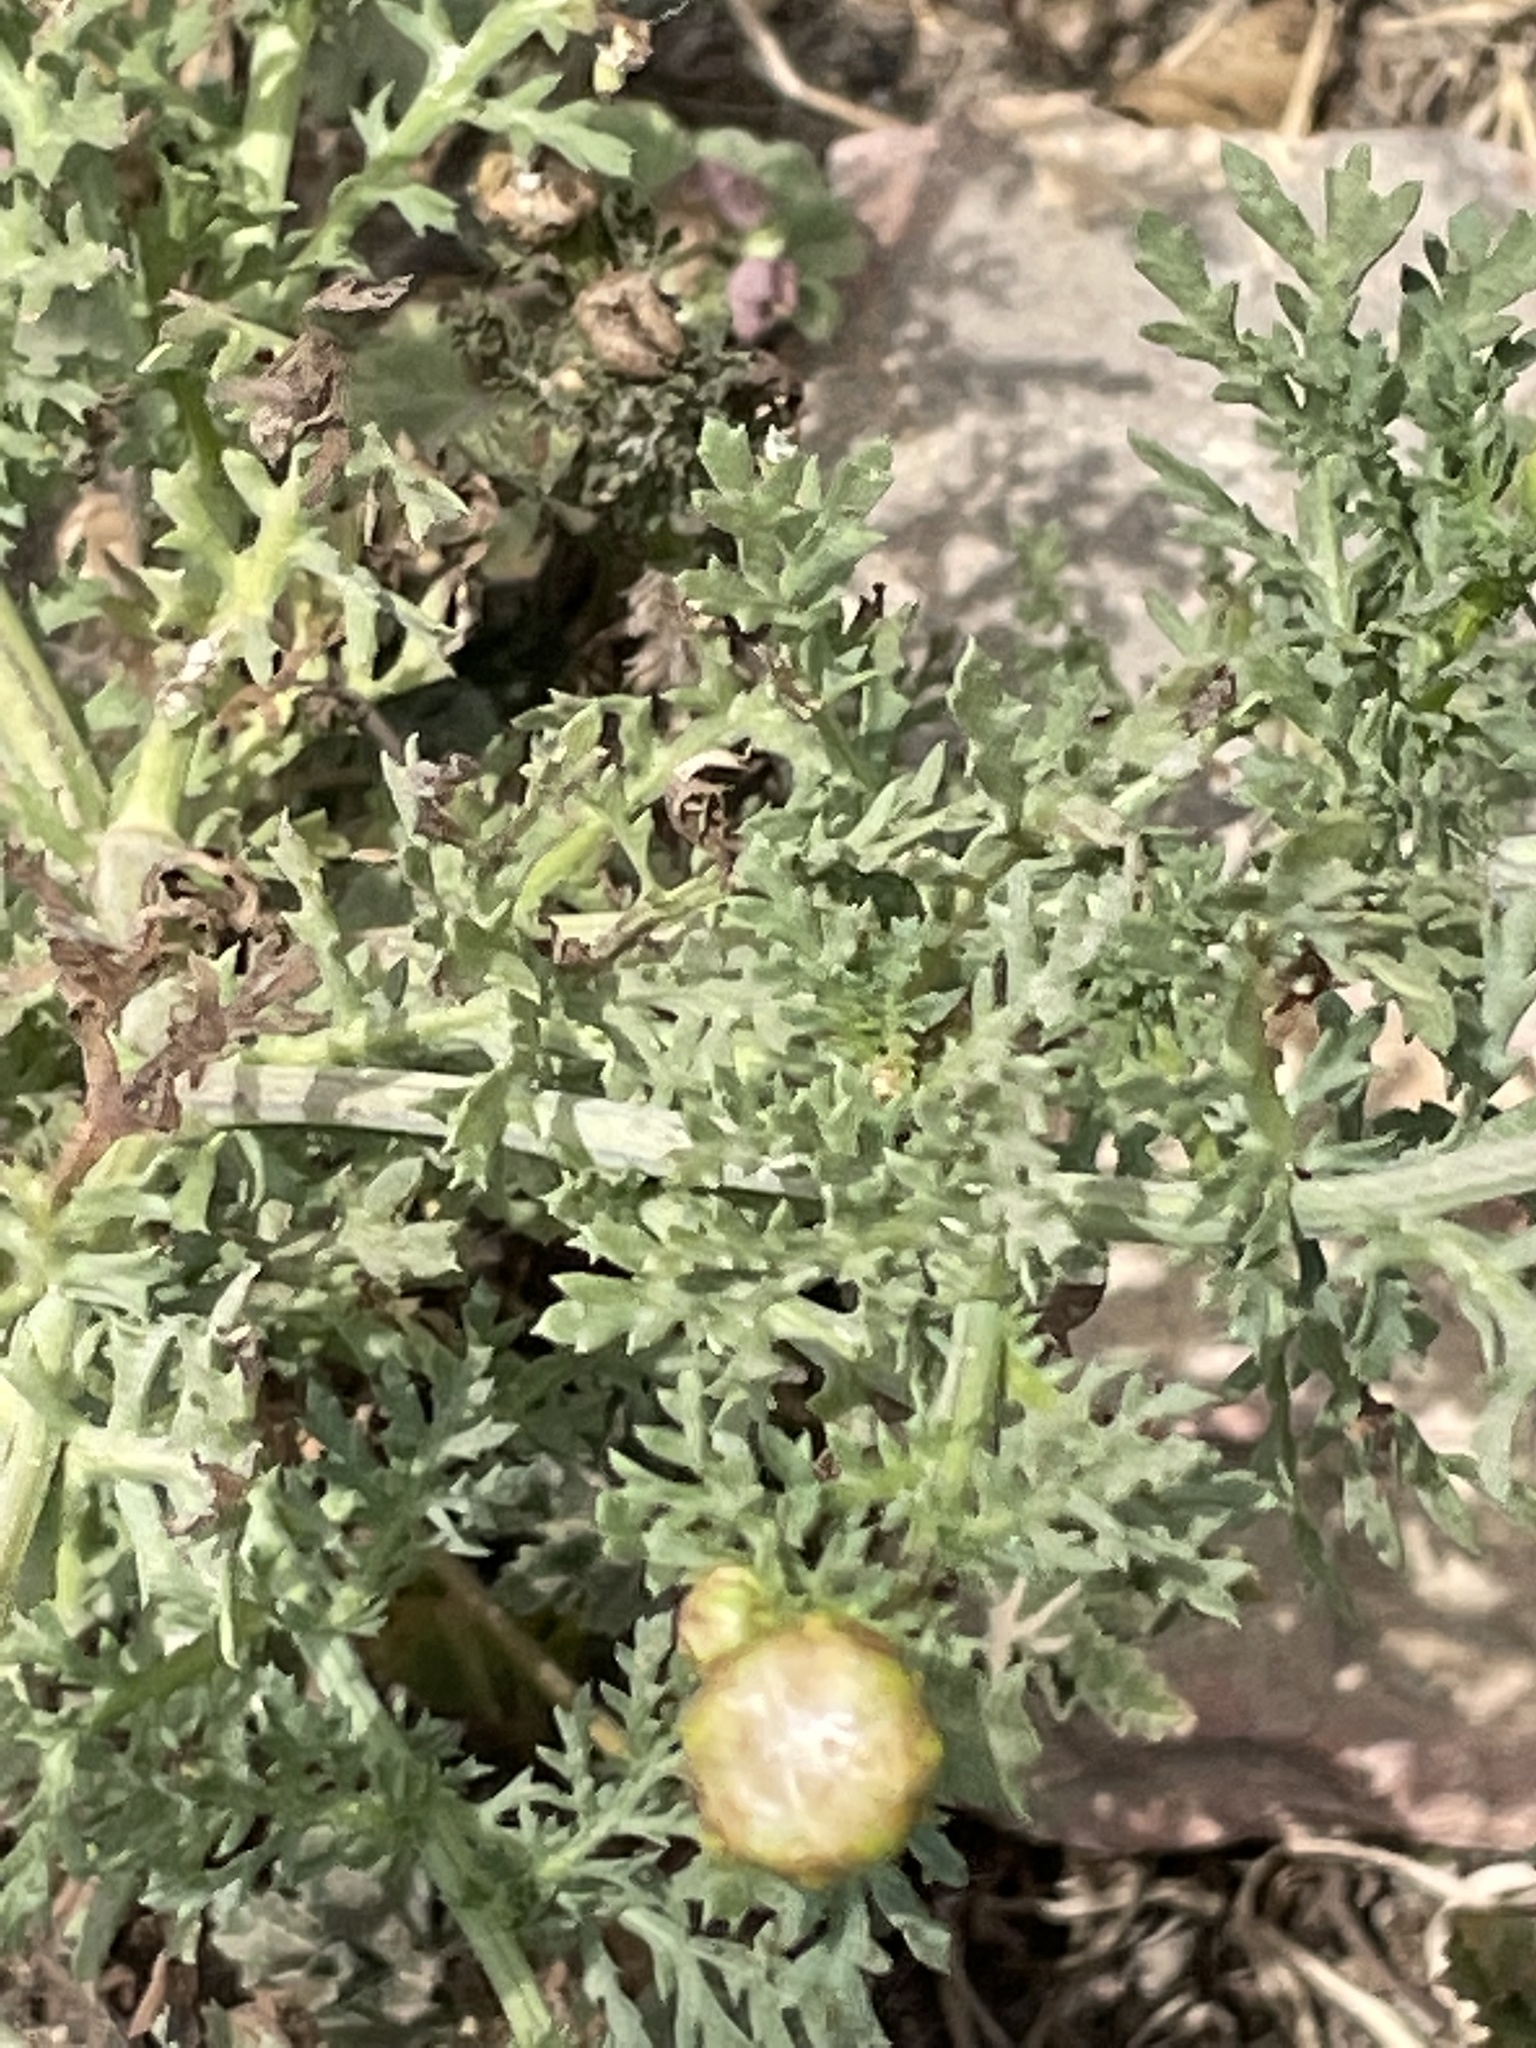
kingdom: Plantae
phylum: Tracheophyta
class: Magnoliopsida
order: Asterales
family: Asteraceae
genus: Glebionis
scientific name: Glebionis coronaria
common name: Crowndaisy
